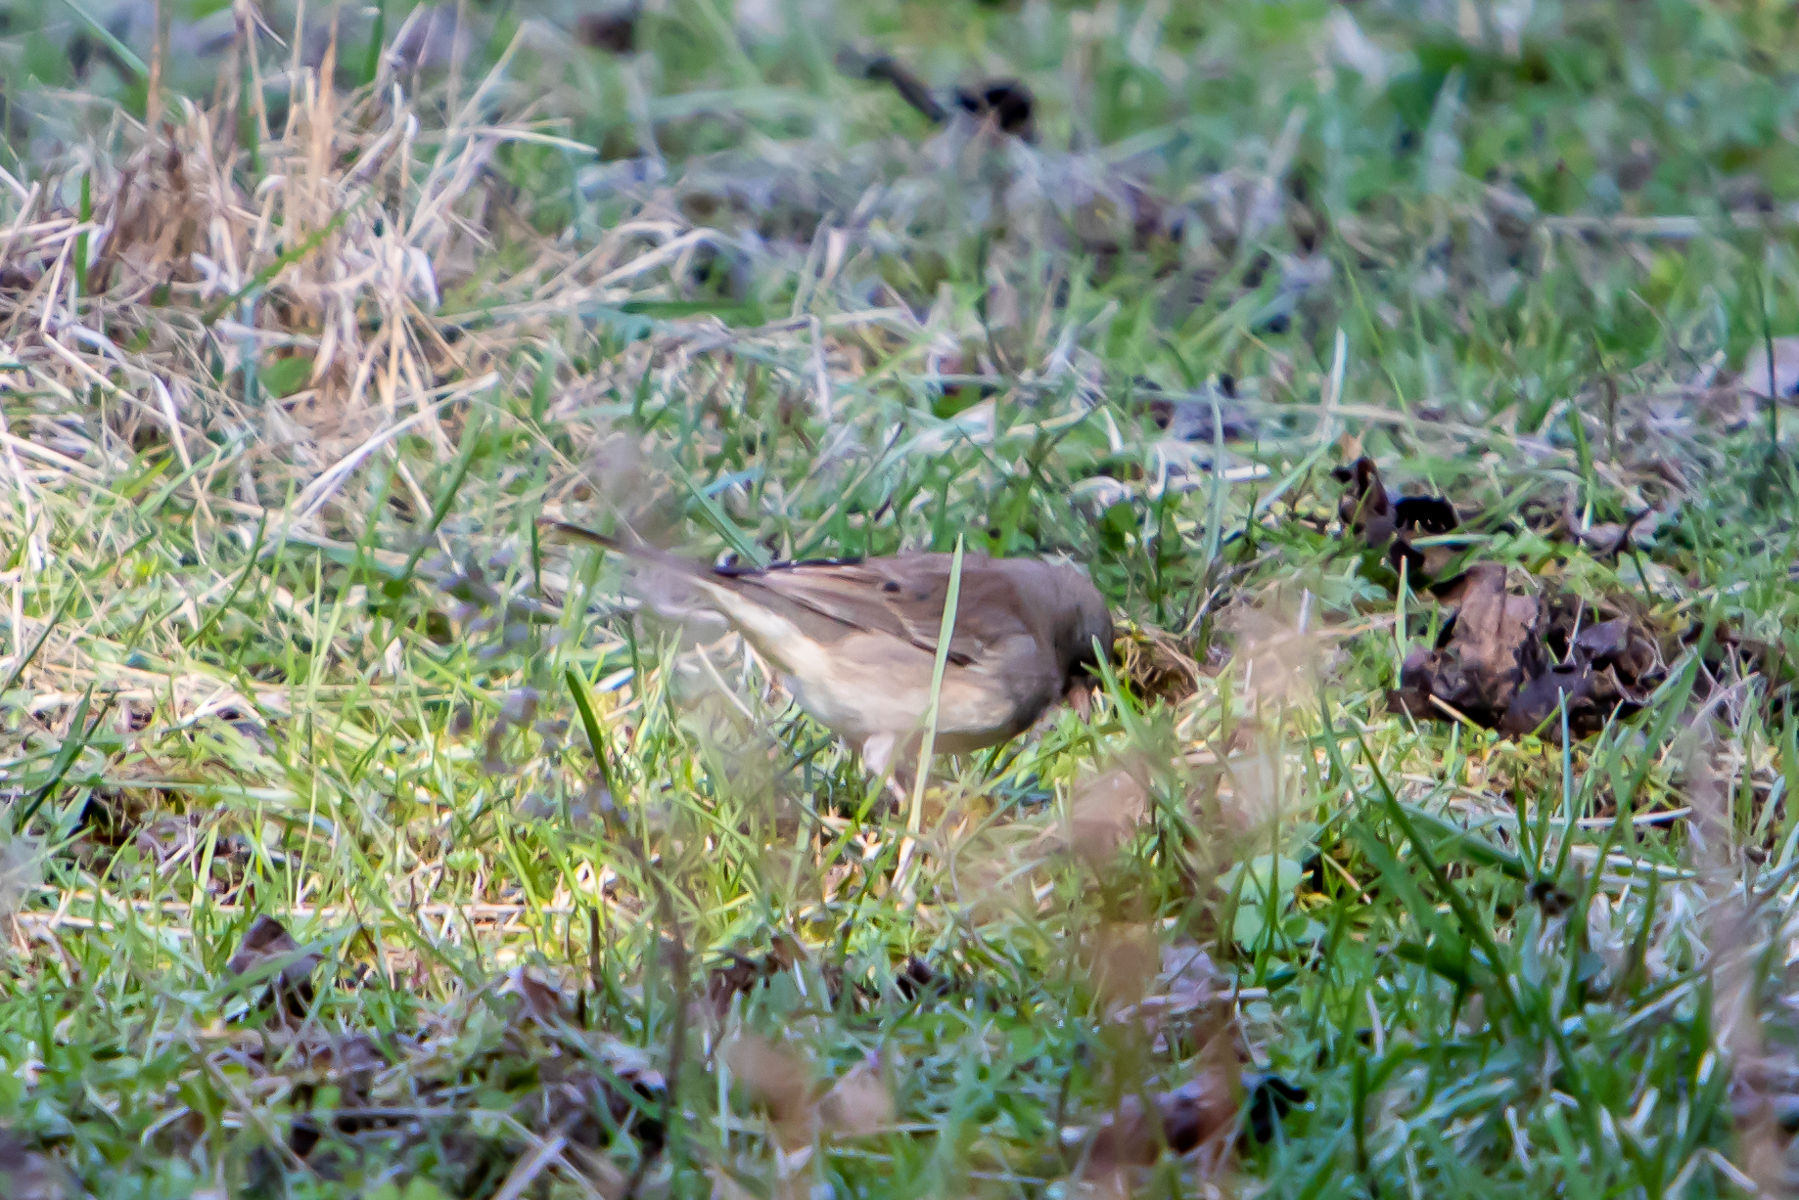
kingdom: Animalia
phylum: Chordata
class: Aves
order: Passeriformes
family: Passerellidae
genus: Junco
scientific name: Junco hyemalis
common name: Dark-eyed junco
